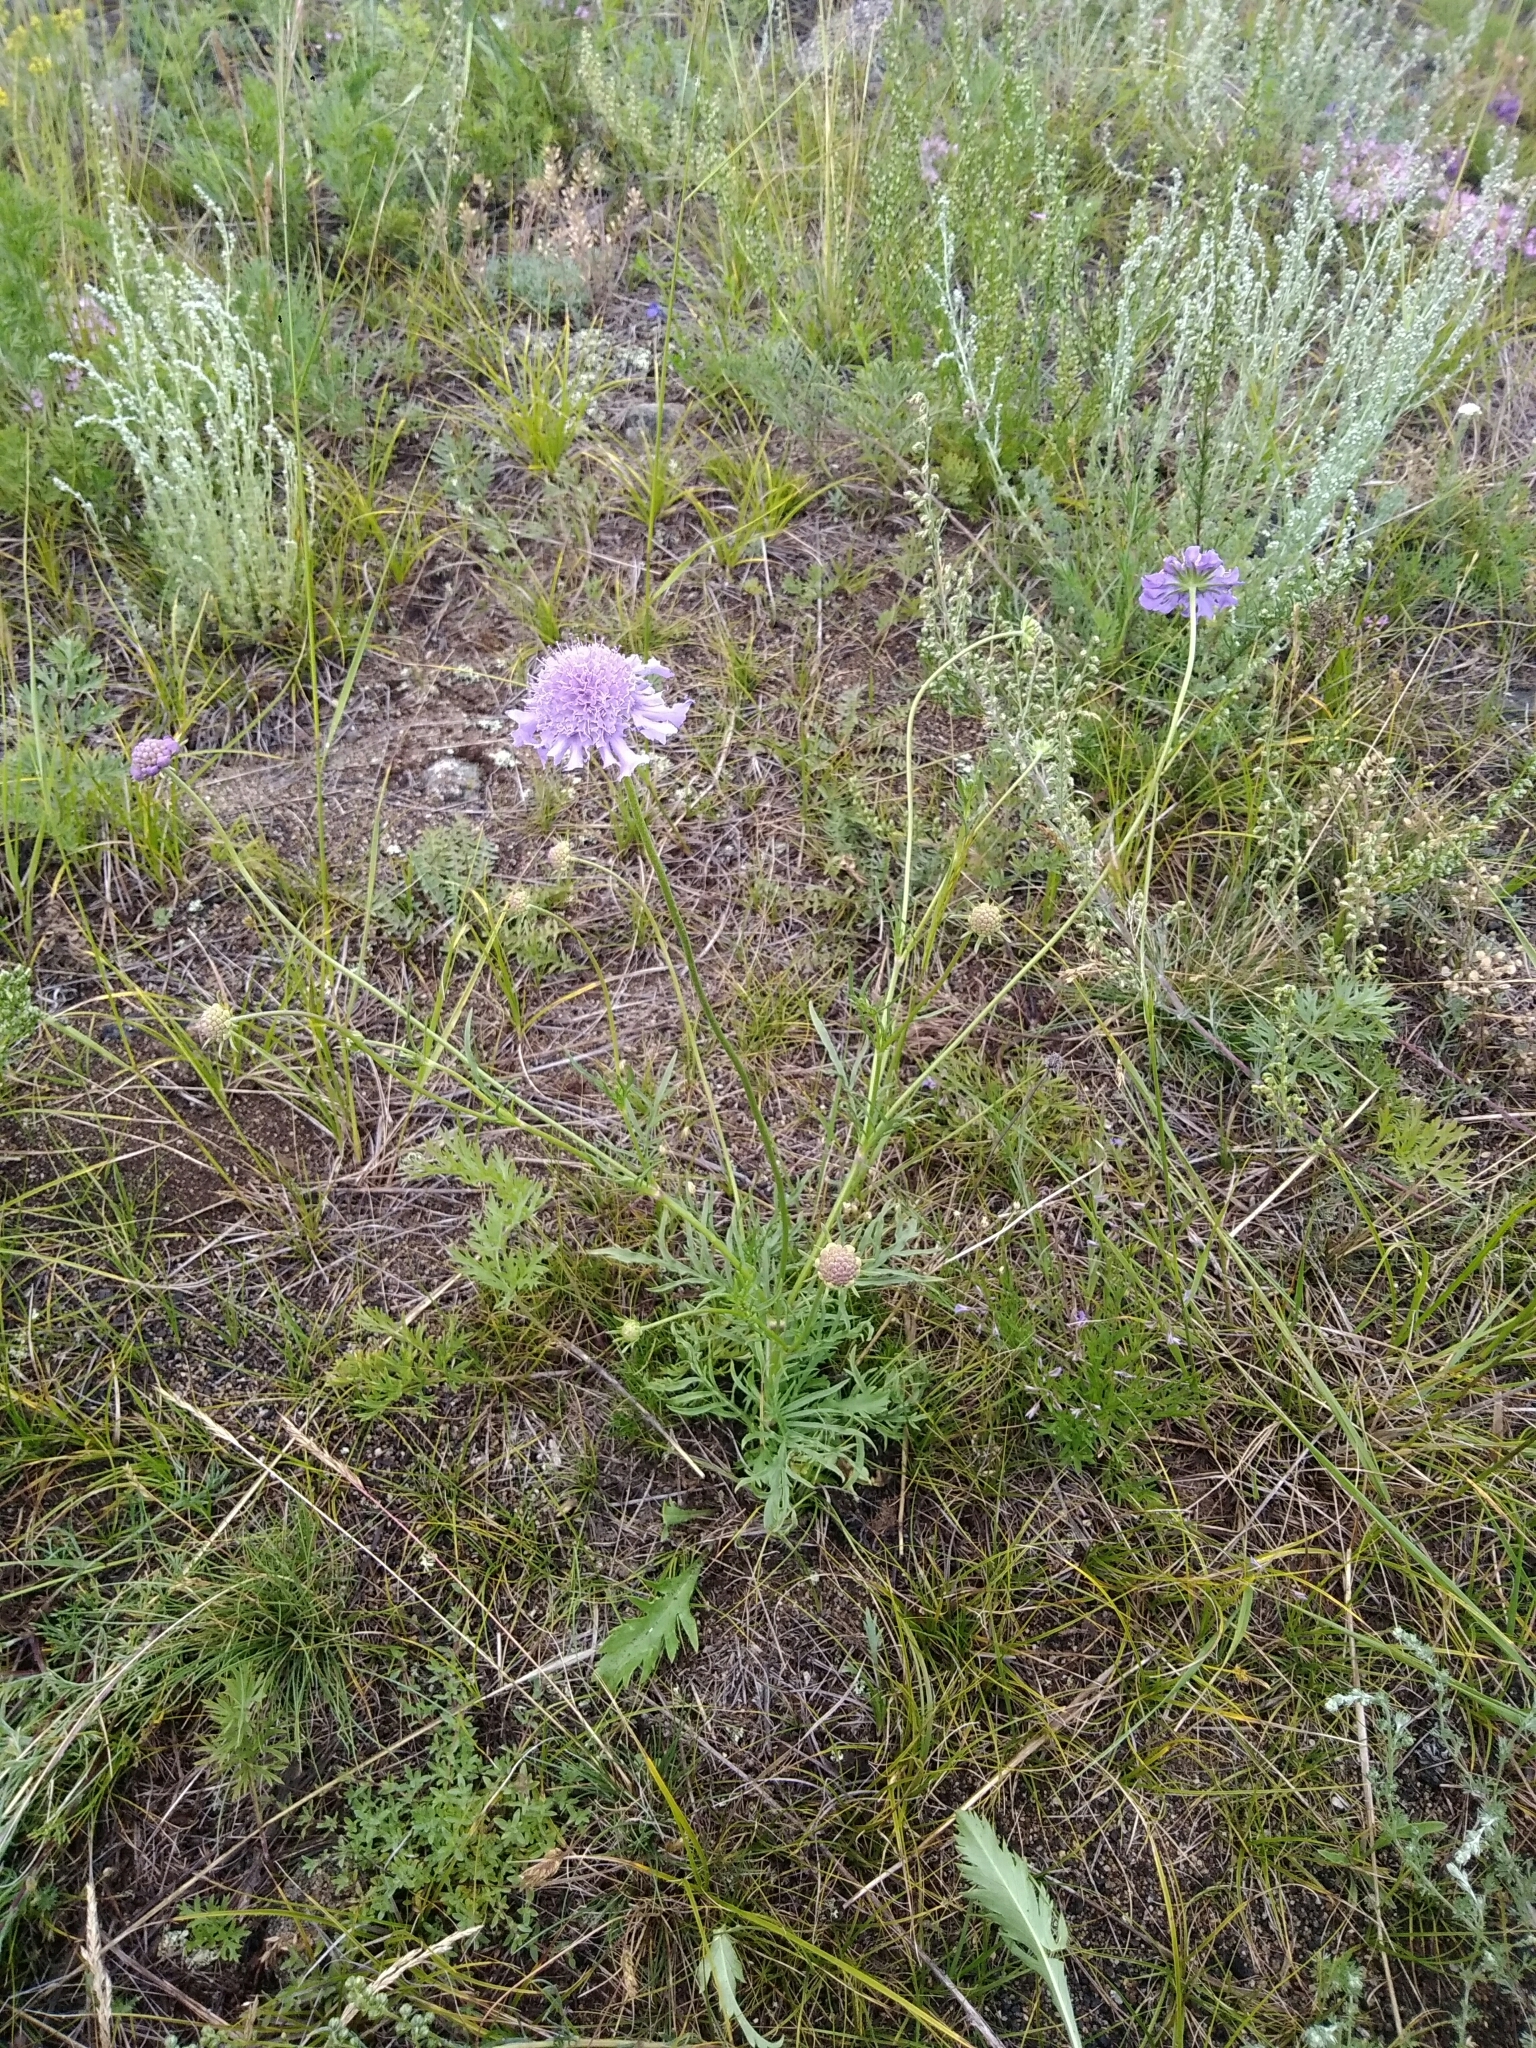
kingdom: Plantae
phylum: Tracheophyta
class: Magnoliopsida
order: Dipsacales
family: Caprifoliaceae
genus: Scabiosa
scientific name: Scabiosa comosa
